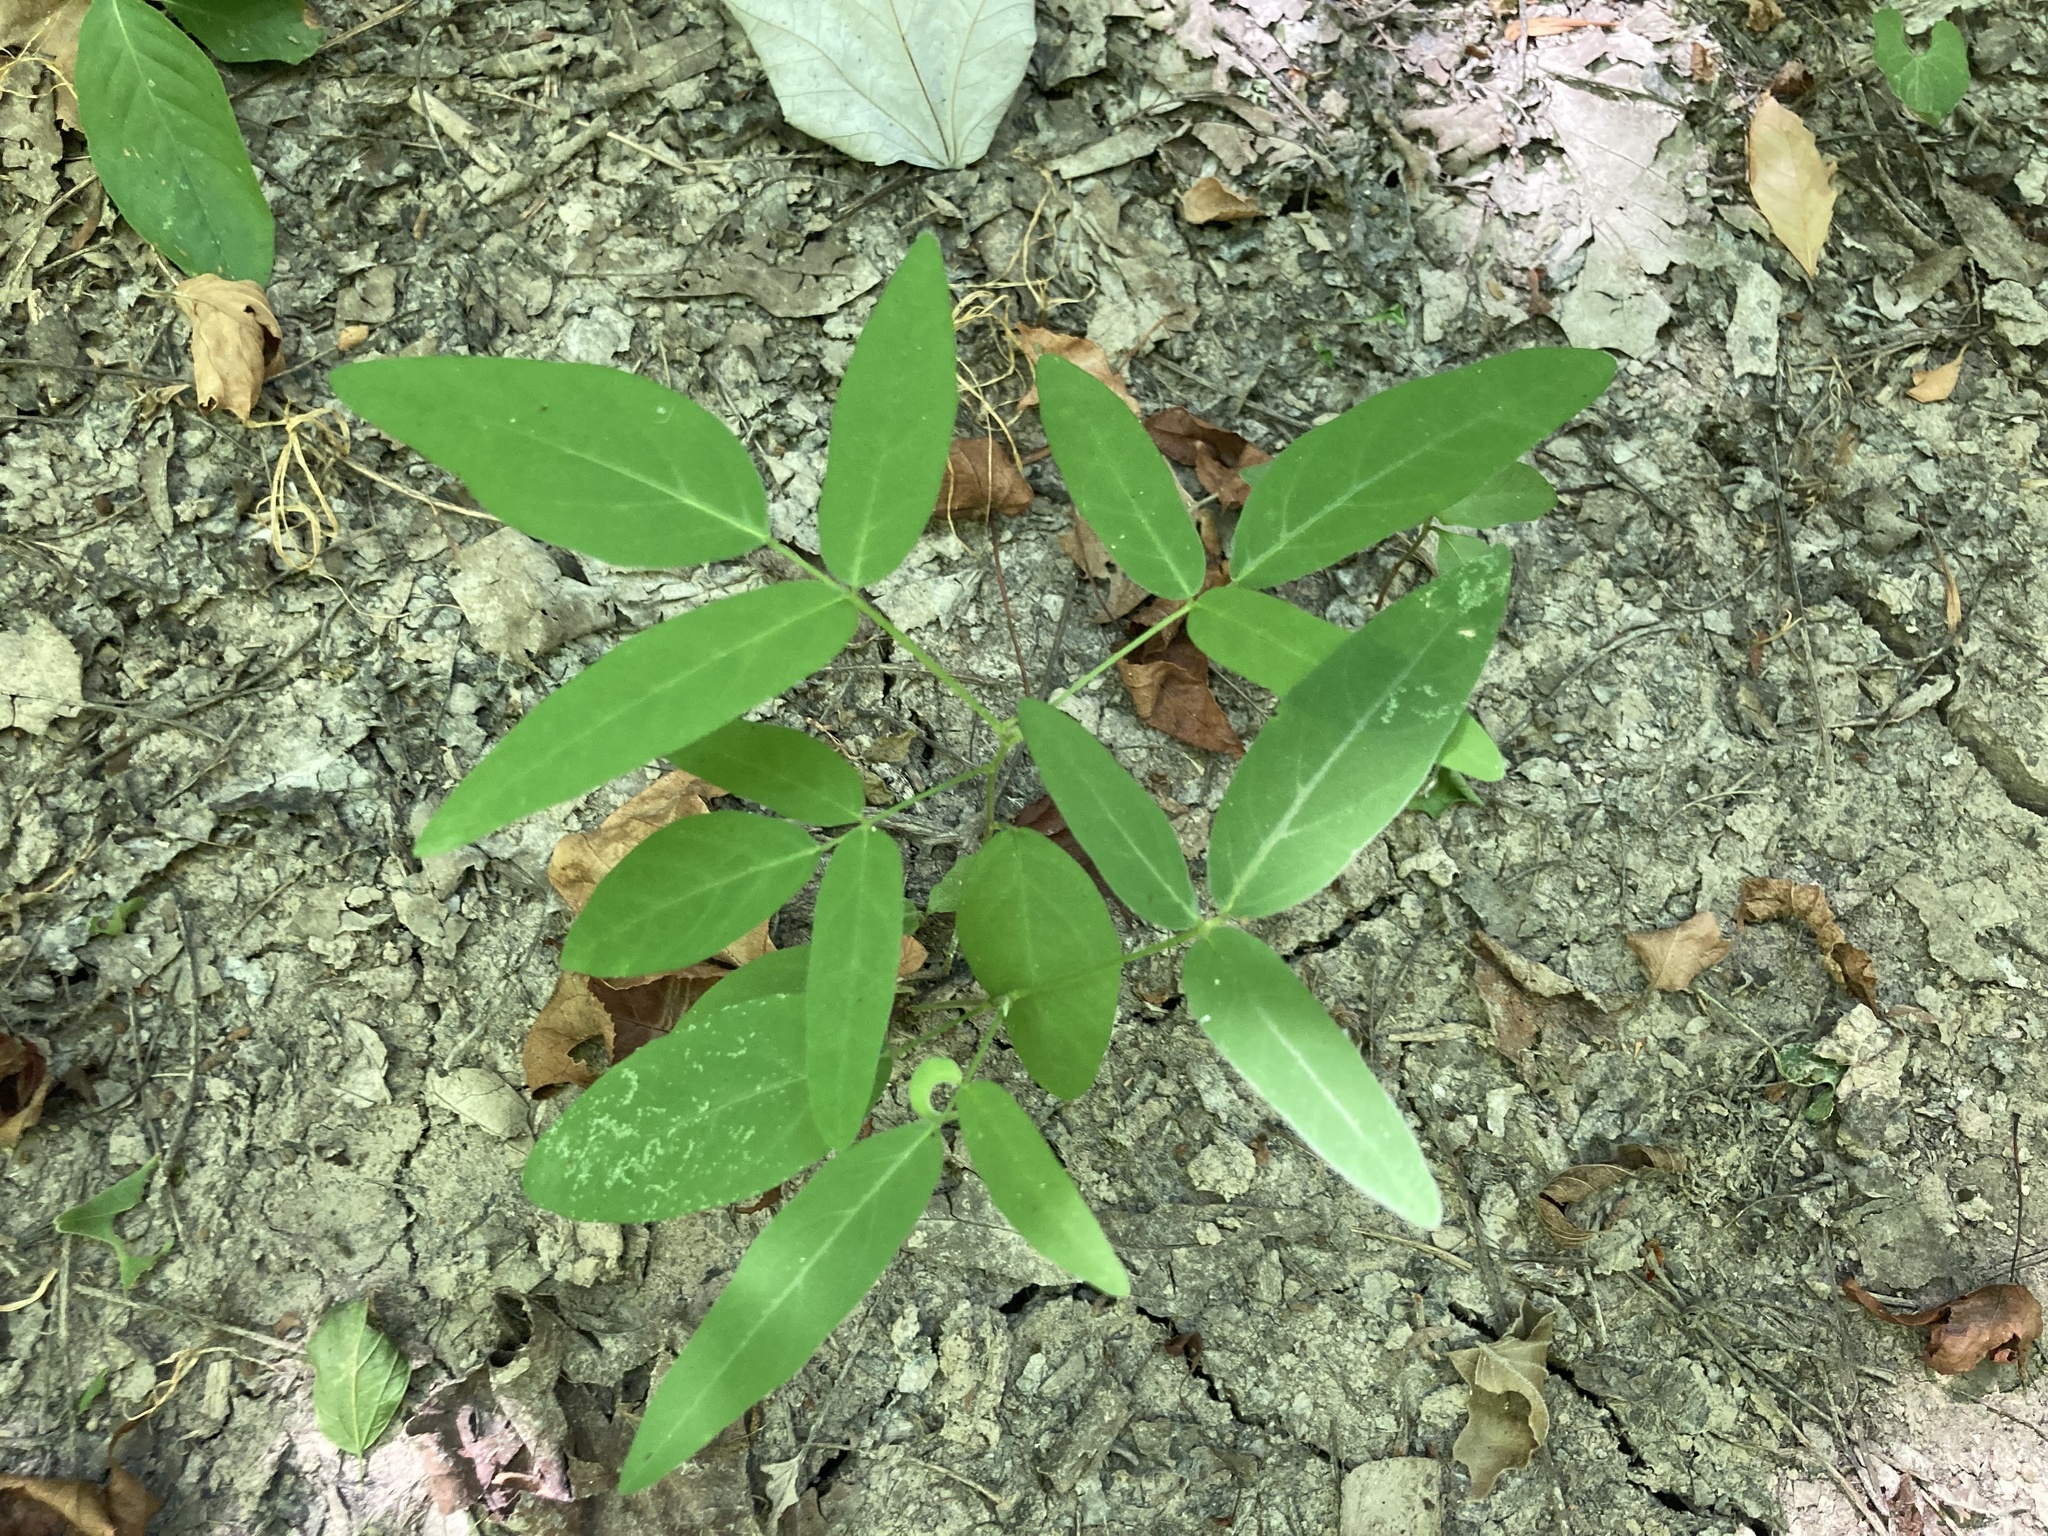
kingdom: Plantae
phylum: Tracheophyta
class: Magnoliopsida
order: Fabales
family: Fabaceae
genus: Desmodium
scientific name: Desmodium paniculatum
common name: Panicled tick-clover
